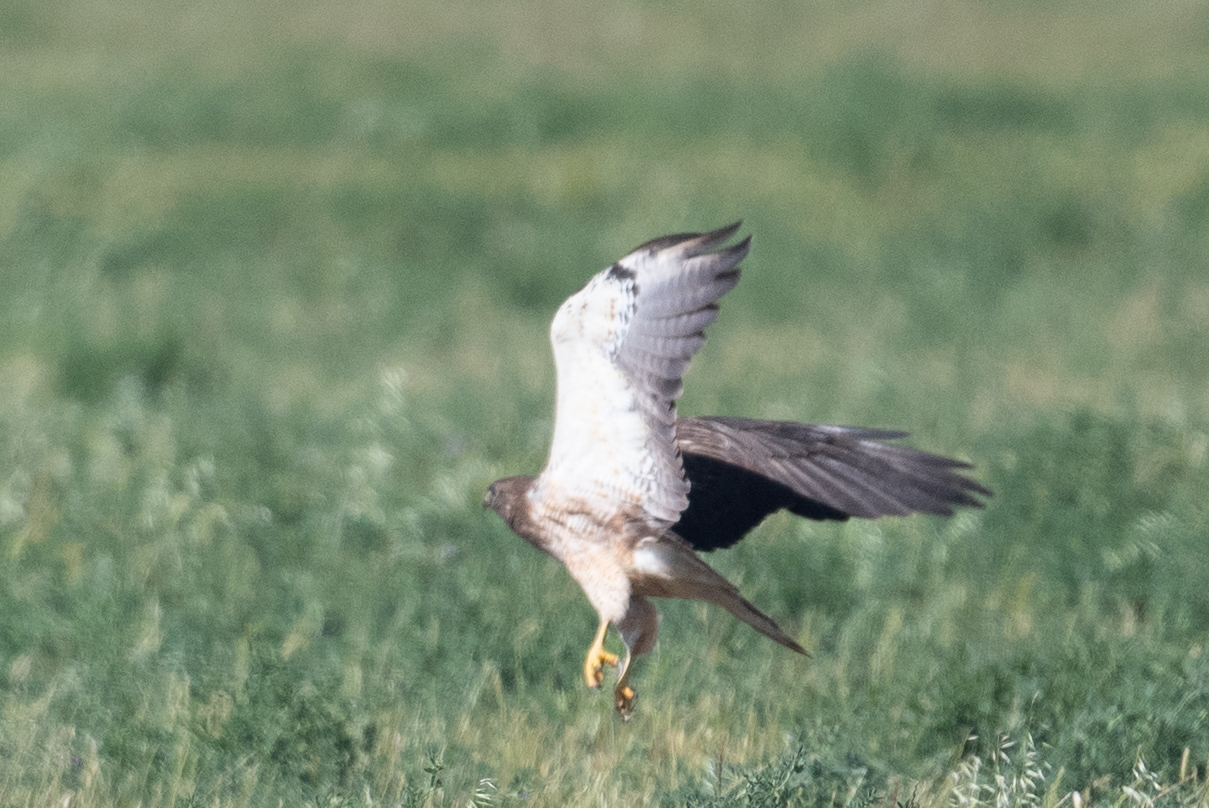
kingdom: Animalia
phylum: Chordata
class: Aves
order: Accipitriformes
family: Accipitridae
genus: Buteo
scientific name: Buteo swainsoni
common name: Swainson's hawk
